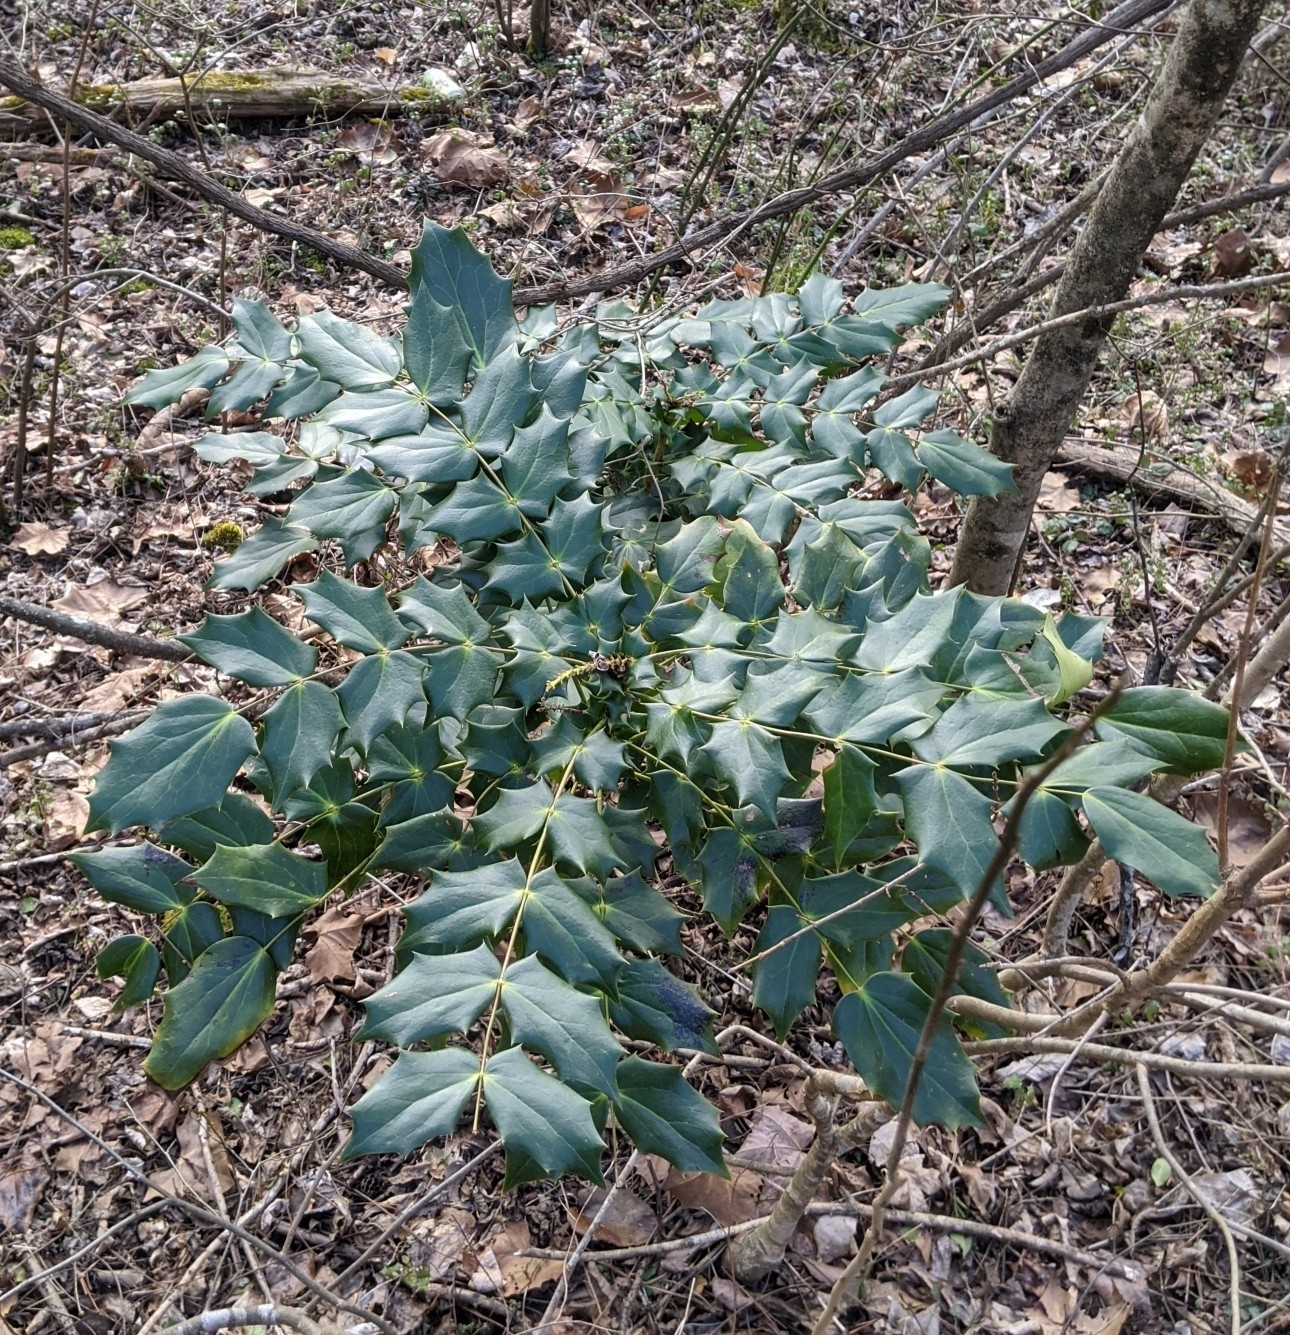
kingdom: Plantae
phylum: Tracheophyta
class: Magnoliopsida
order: Ranunculales
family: Berberidaceae
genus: Mahonia
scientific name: Mahonia bealei
